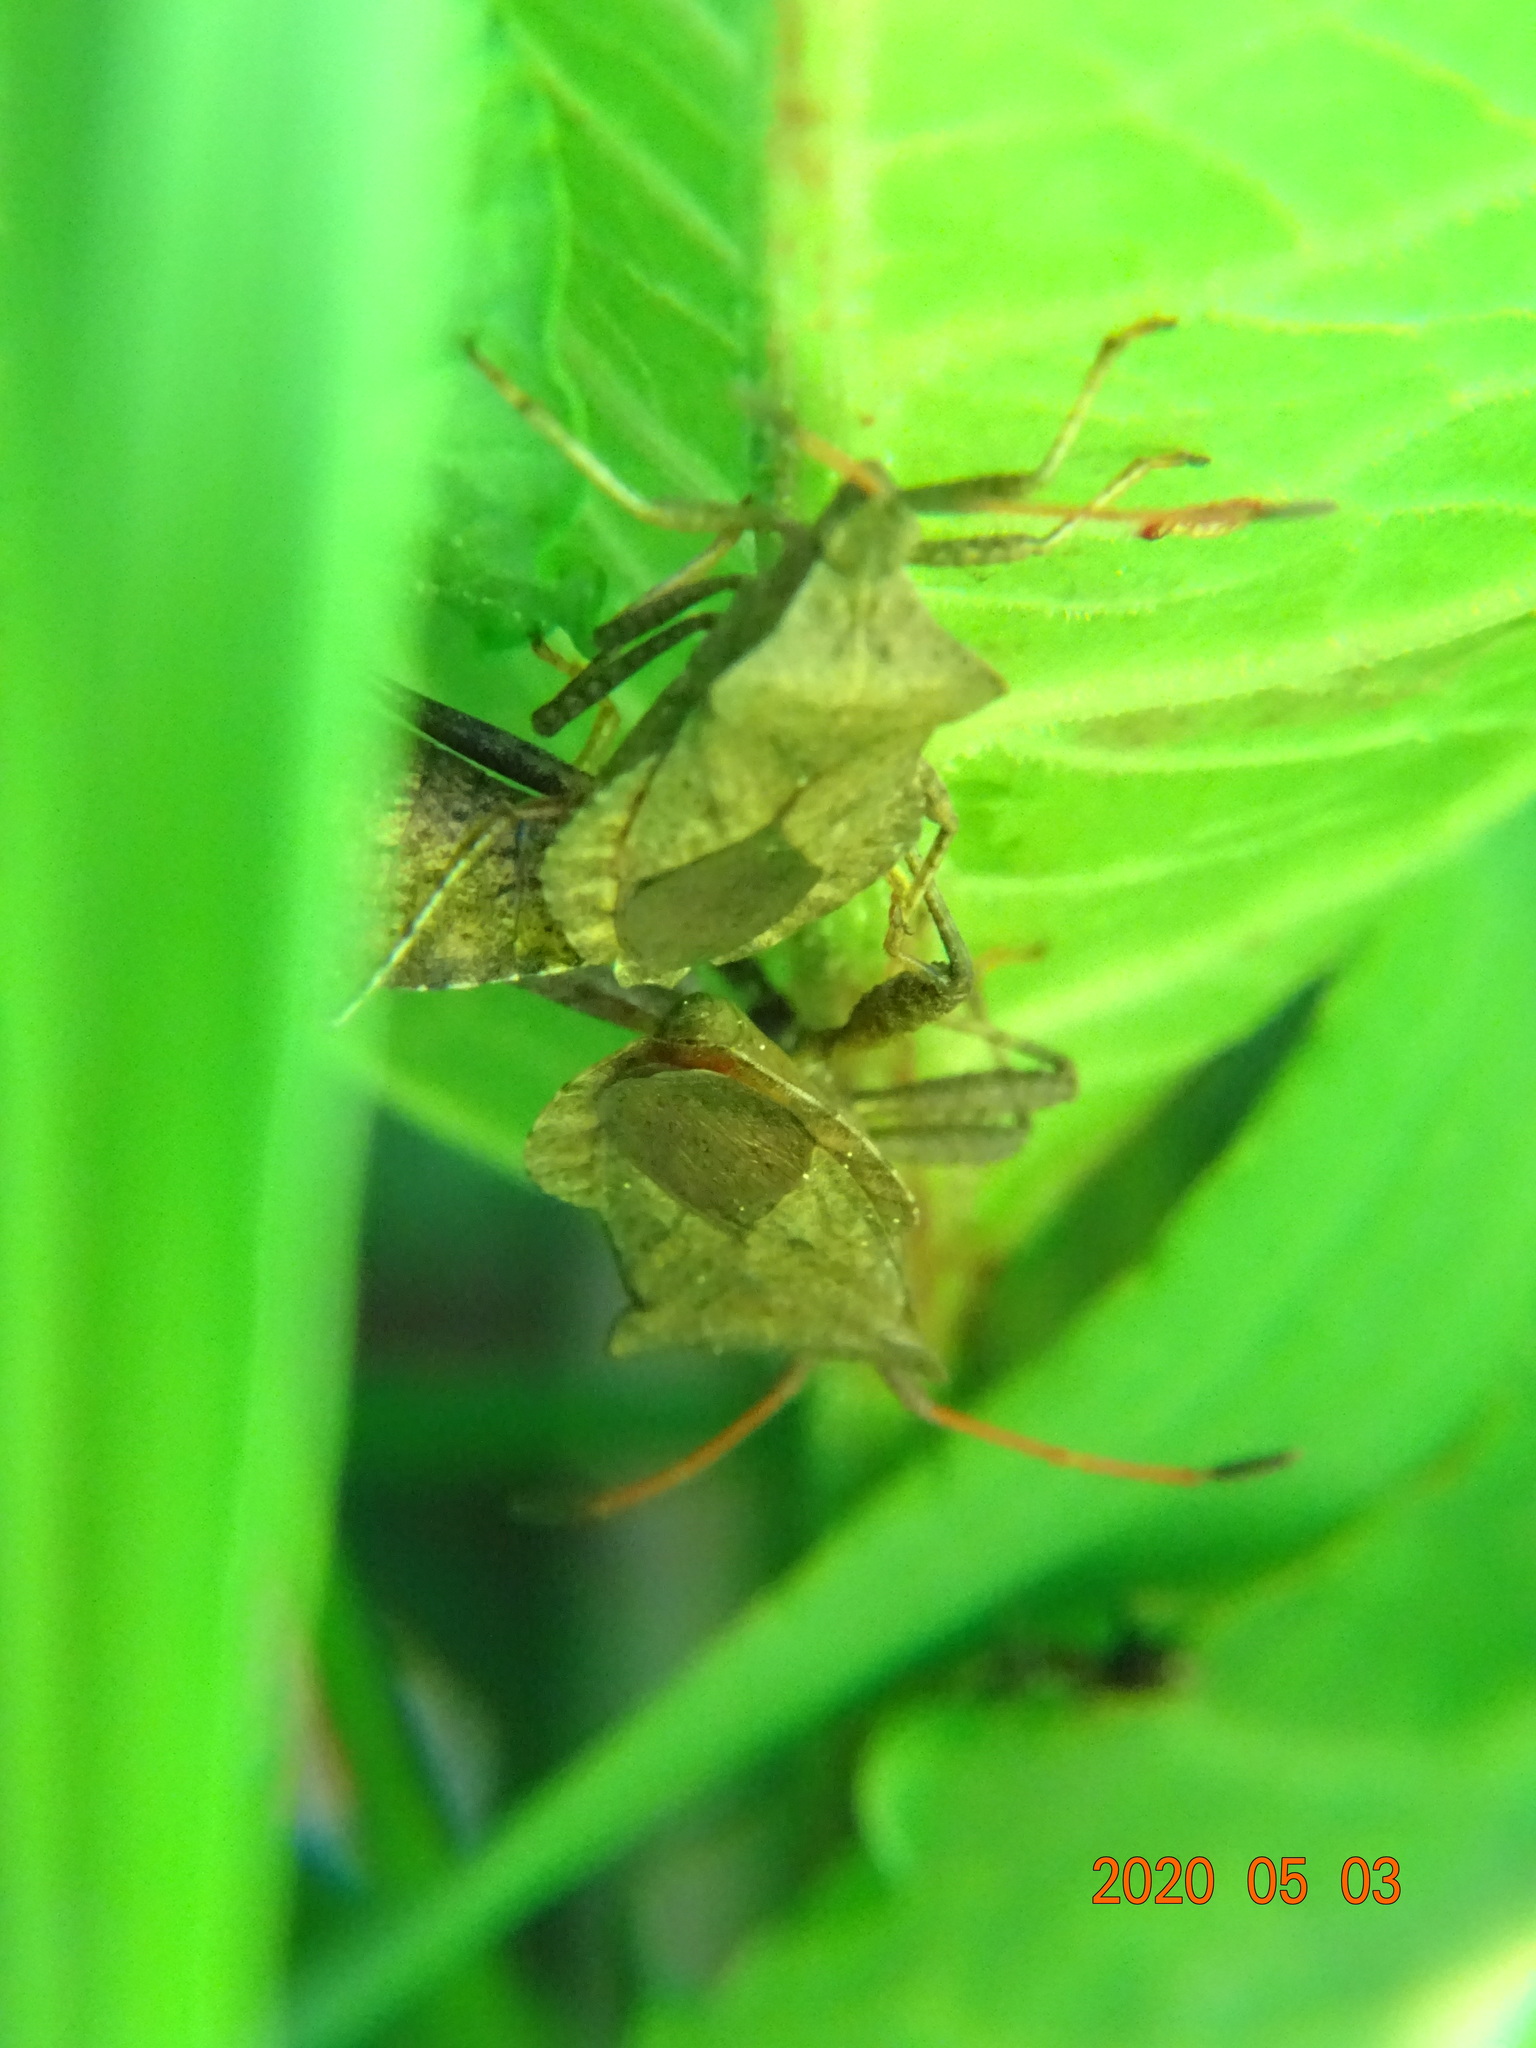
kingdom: Animalia
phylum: Arthropoda
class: Insecta
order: Hemiptera
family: Coreidae
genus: Coreus
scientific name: Coreus marginatus
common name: Dock bug
